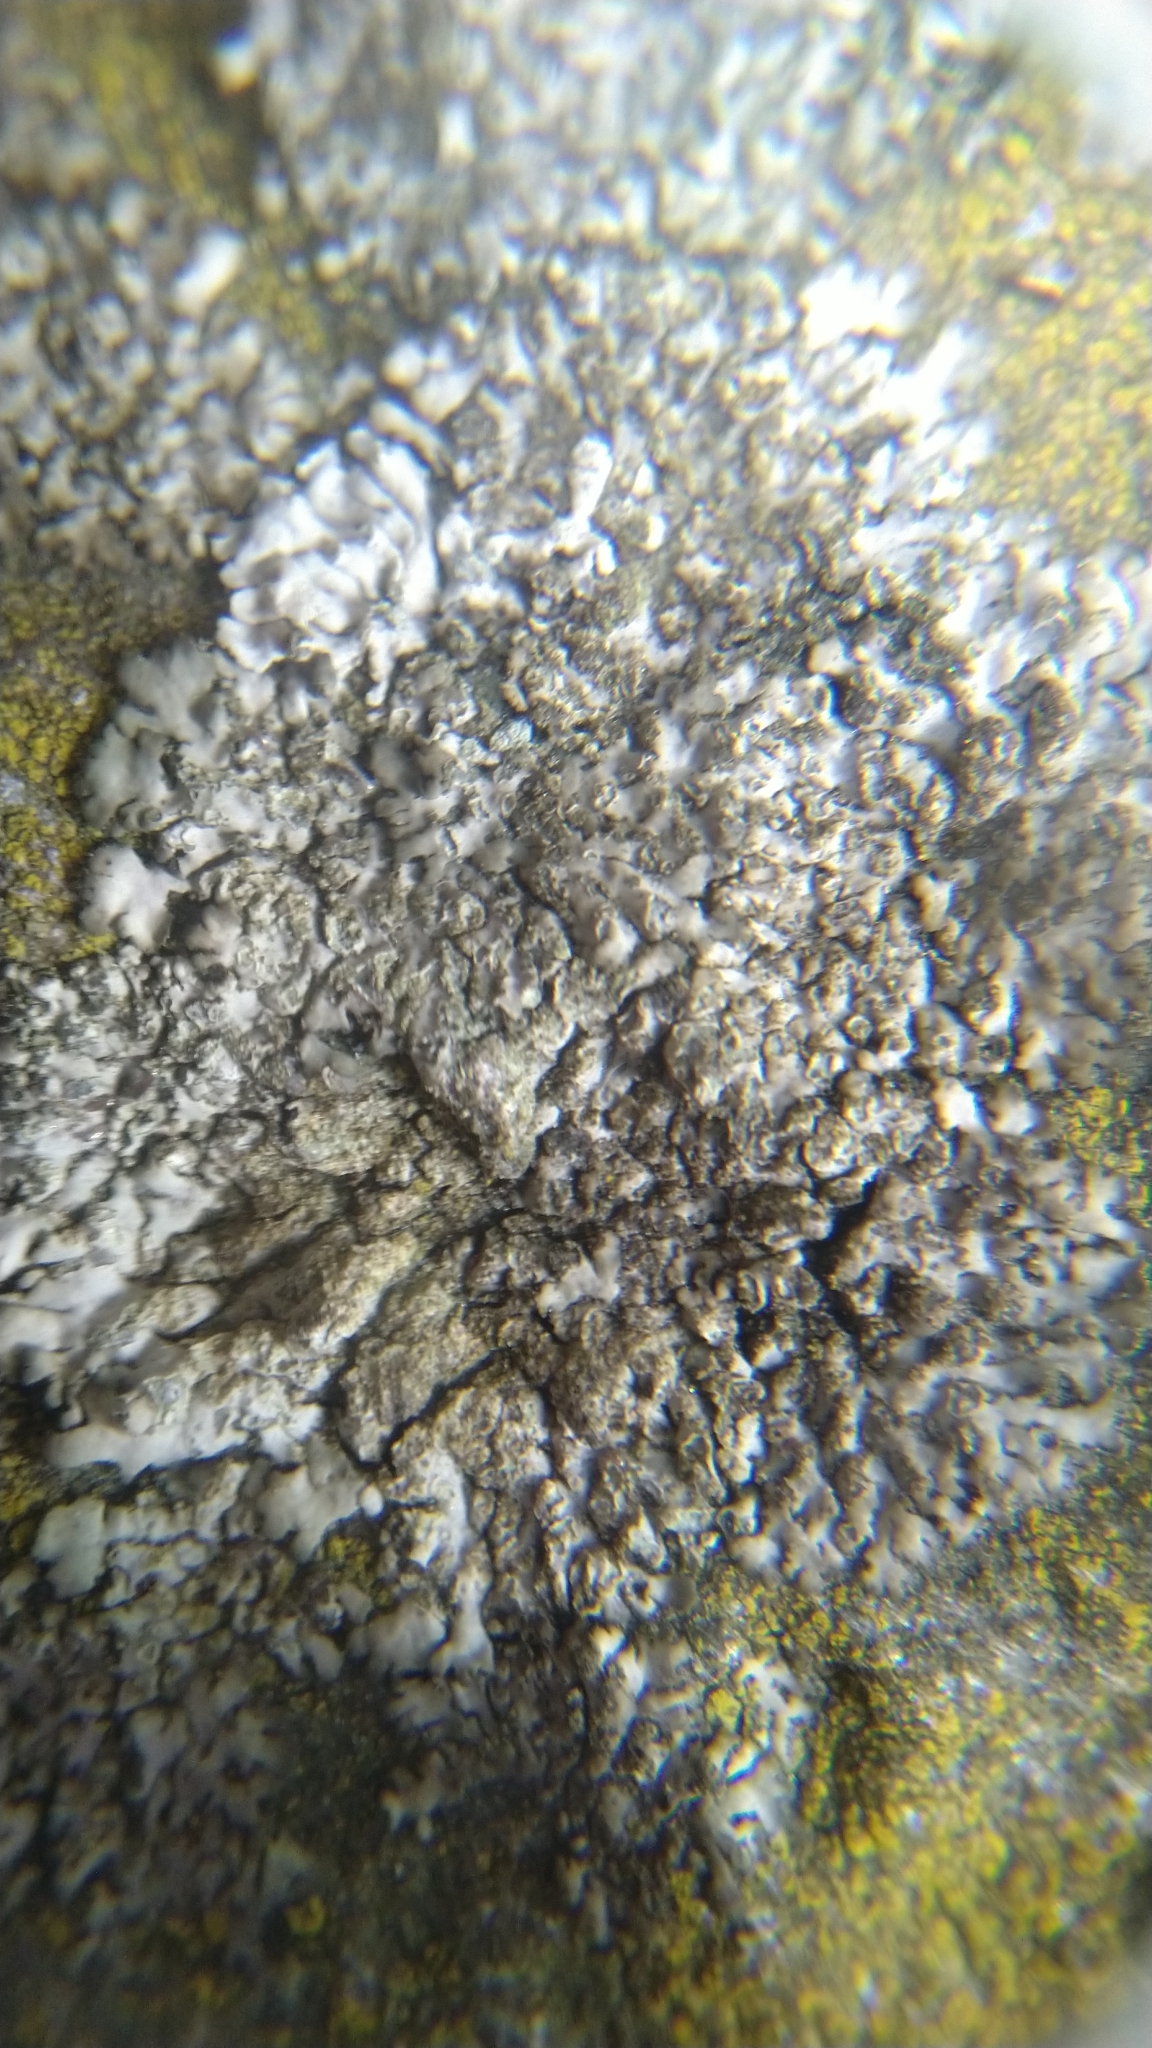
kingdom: Fungi
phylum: Ascomycota
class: Lecanoromycetes
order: Caliciales
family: Physciaceae
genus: Phaeophyscia
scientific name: Phaeophyscia orbicularis
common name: Mealy shadow lichen
